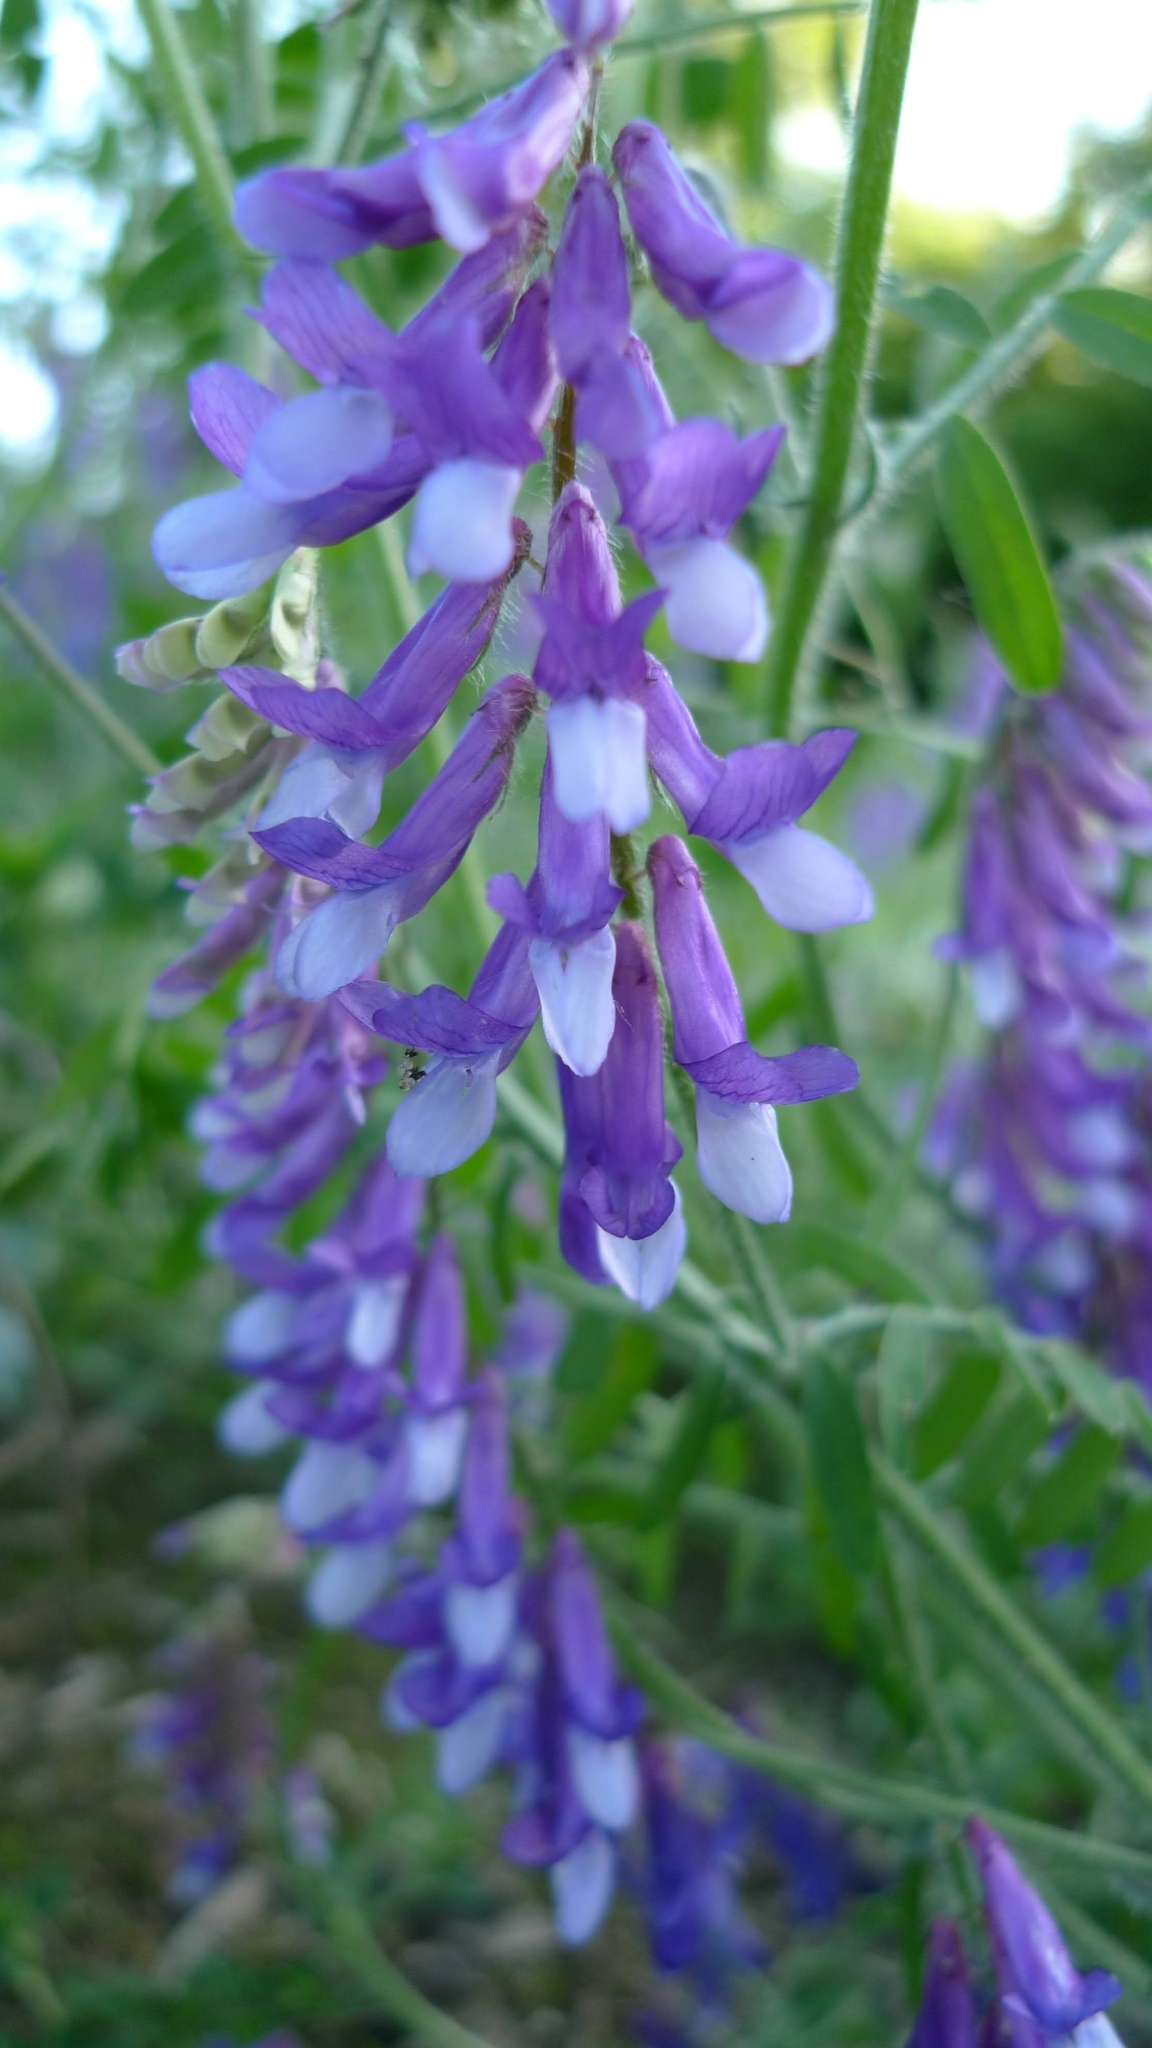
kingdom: Plantae
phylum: Tracheophyta
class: Magnoliopsida
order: Fabales
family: Fabaceae
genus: Vicia
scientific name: Vicia villosa
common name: Fodder vetch
